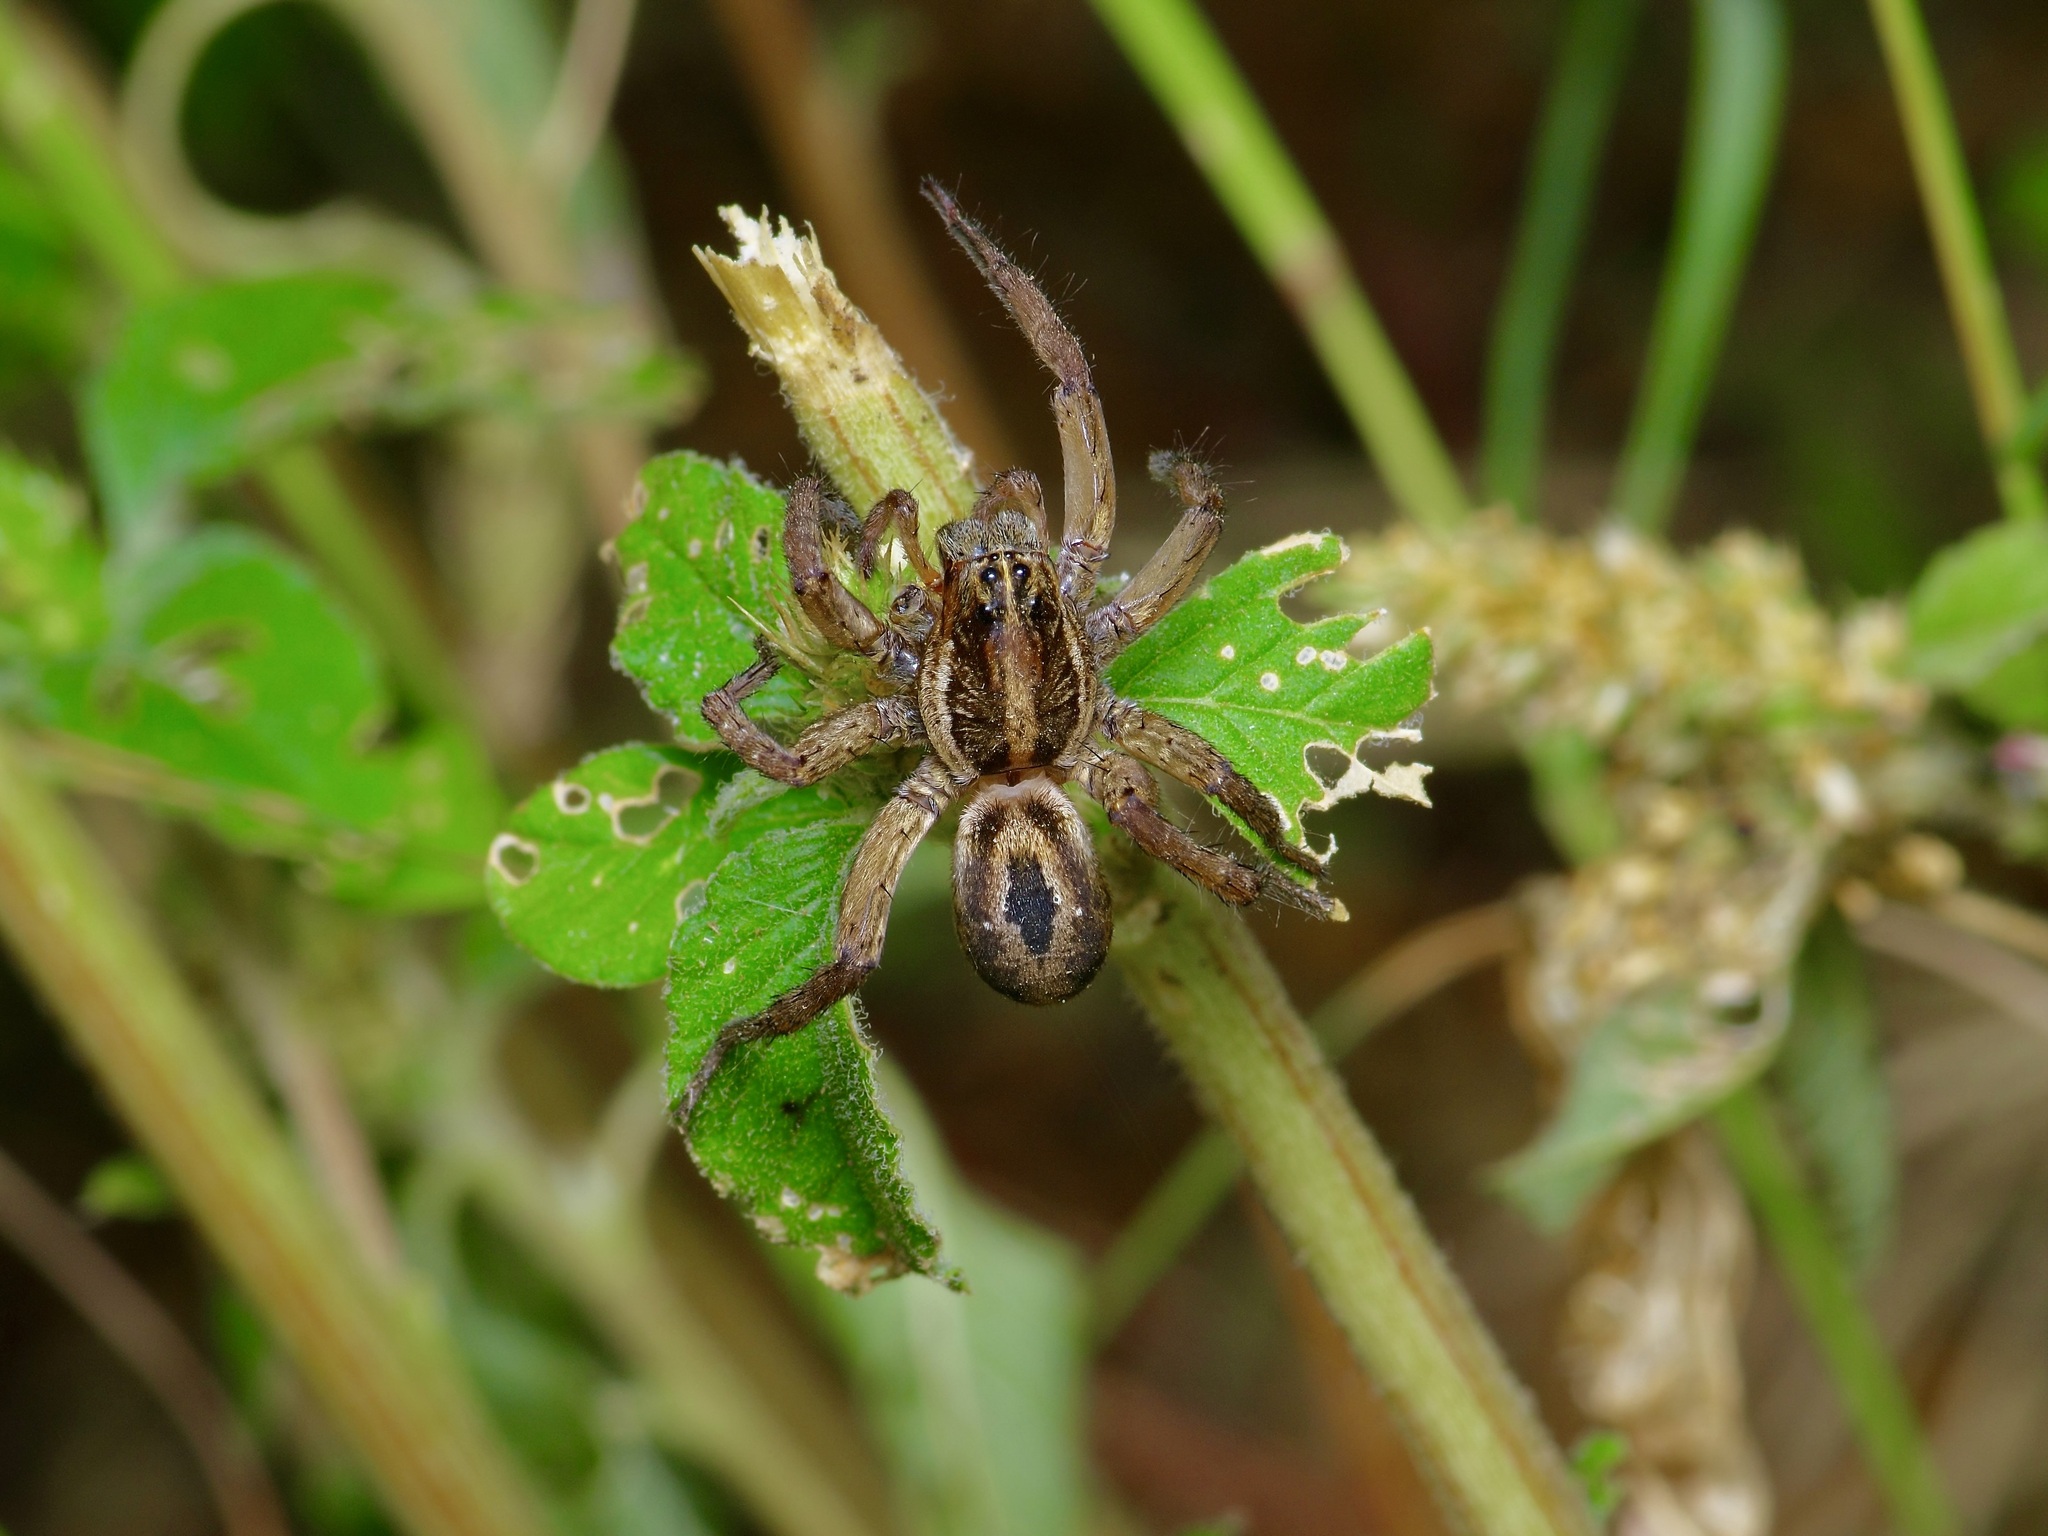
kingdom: Animalia
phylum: Arthropoda
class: Arachnida
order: Araneae
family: Lycosidae
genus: Tigrosa
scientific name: Tigrosa annexa
